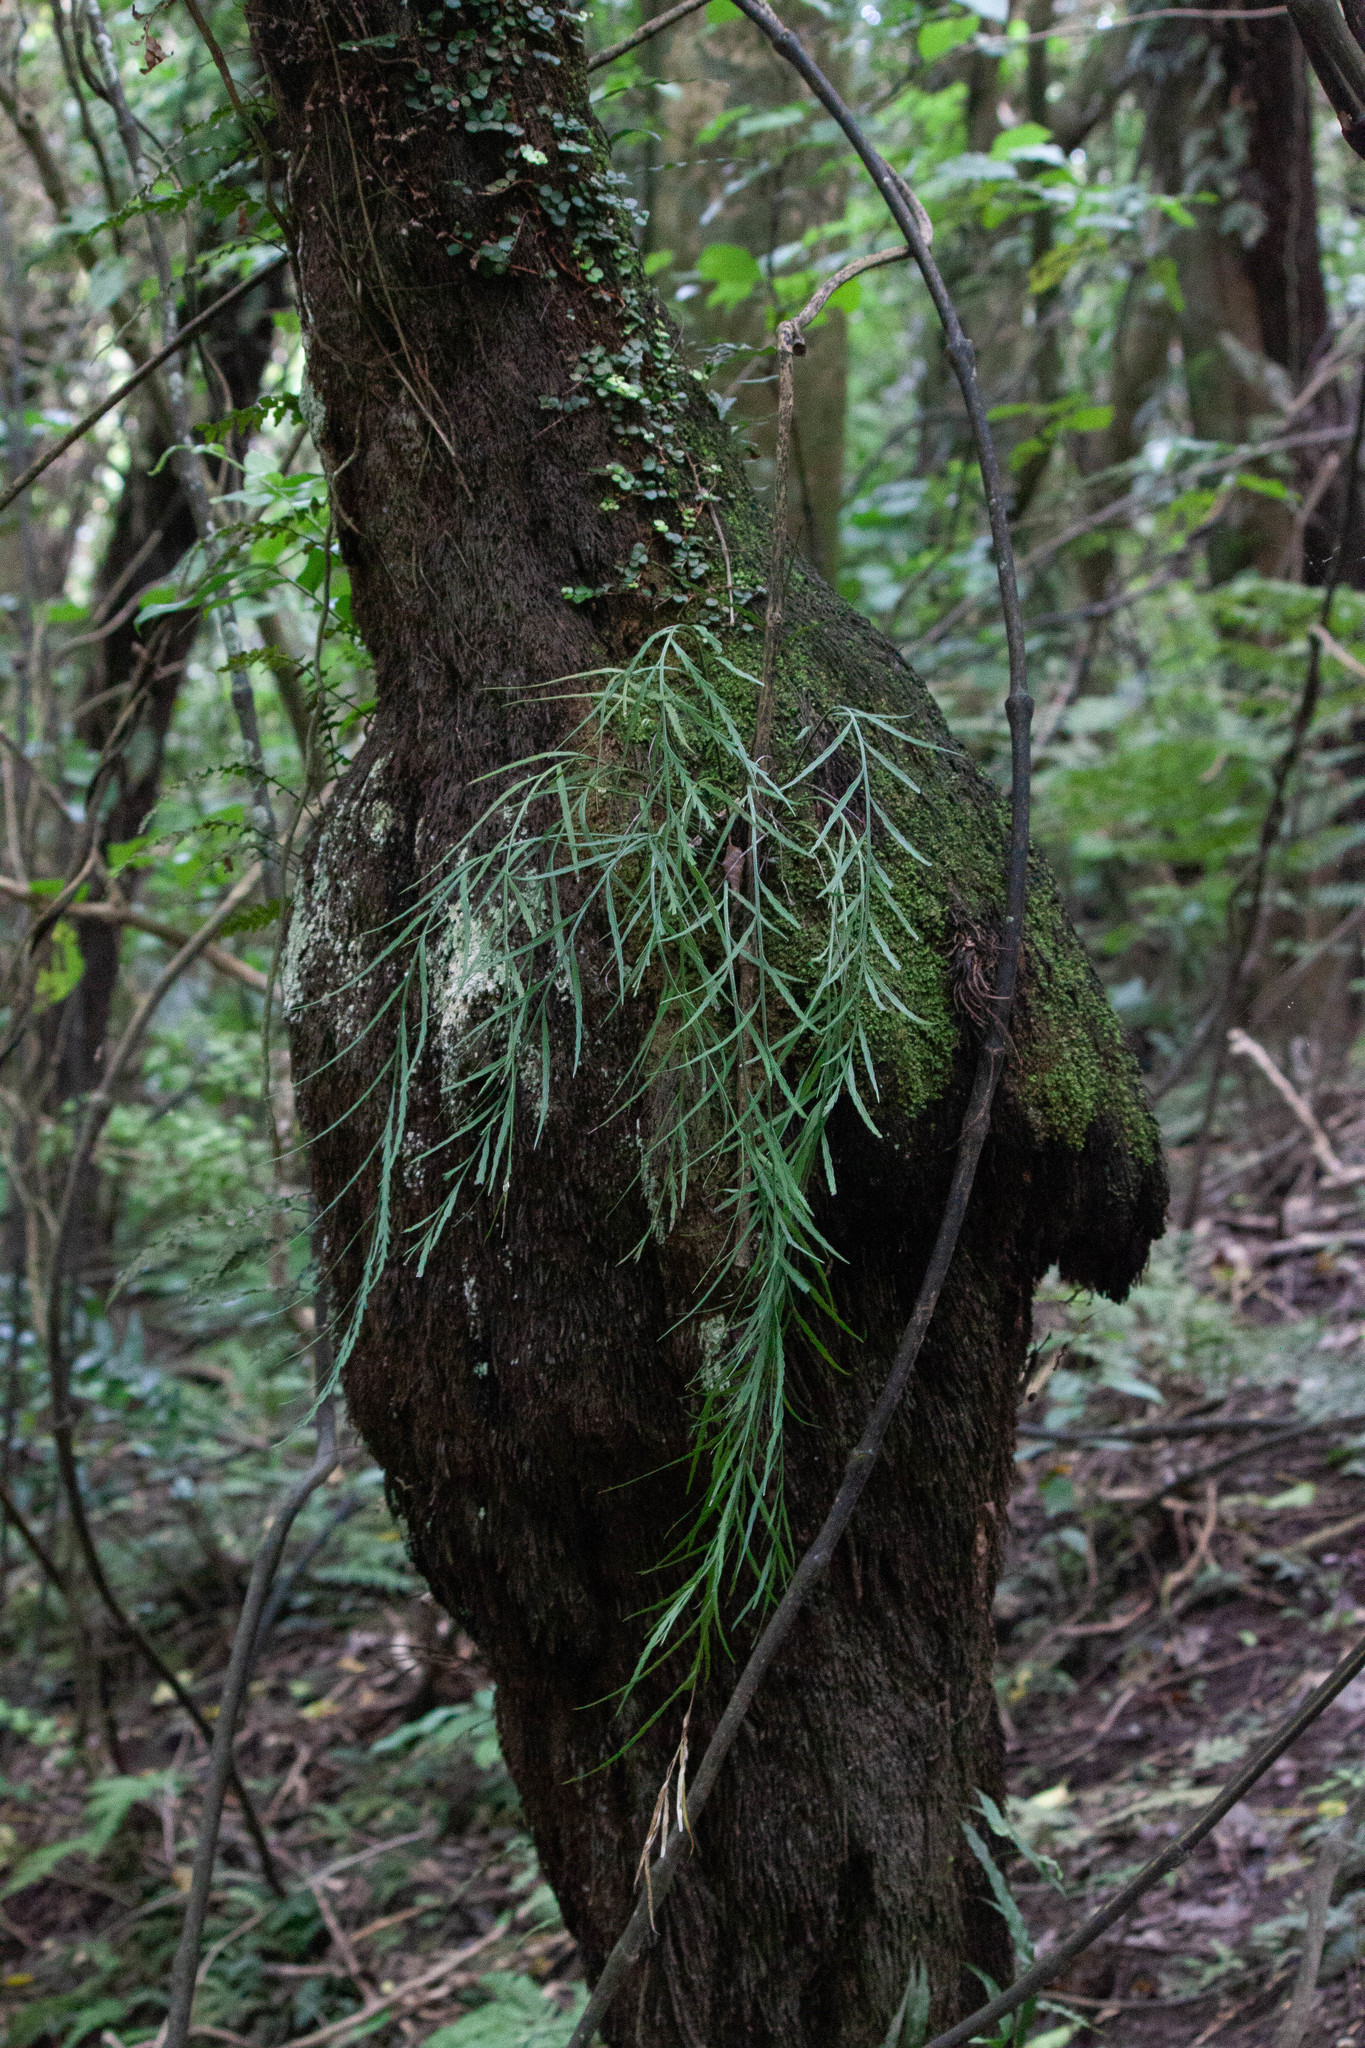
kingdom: Plantae
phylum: Tracheophyta
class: Polypodiopsida
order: Polypodiales
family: Aspleniaceae
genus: Asplenium
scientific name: Asplenium flaccidum
